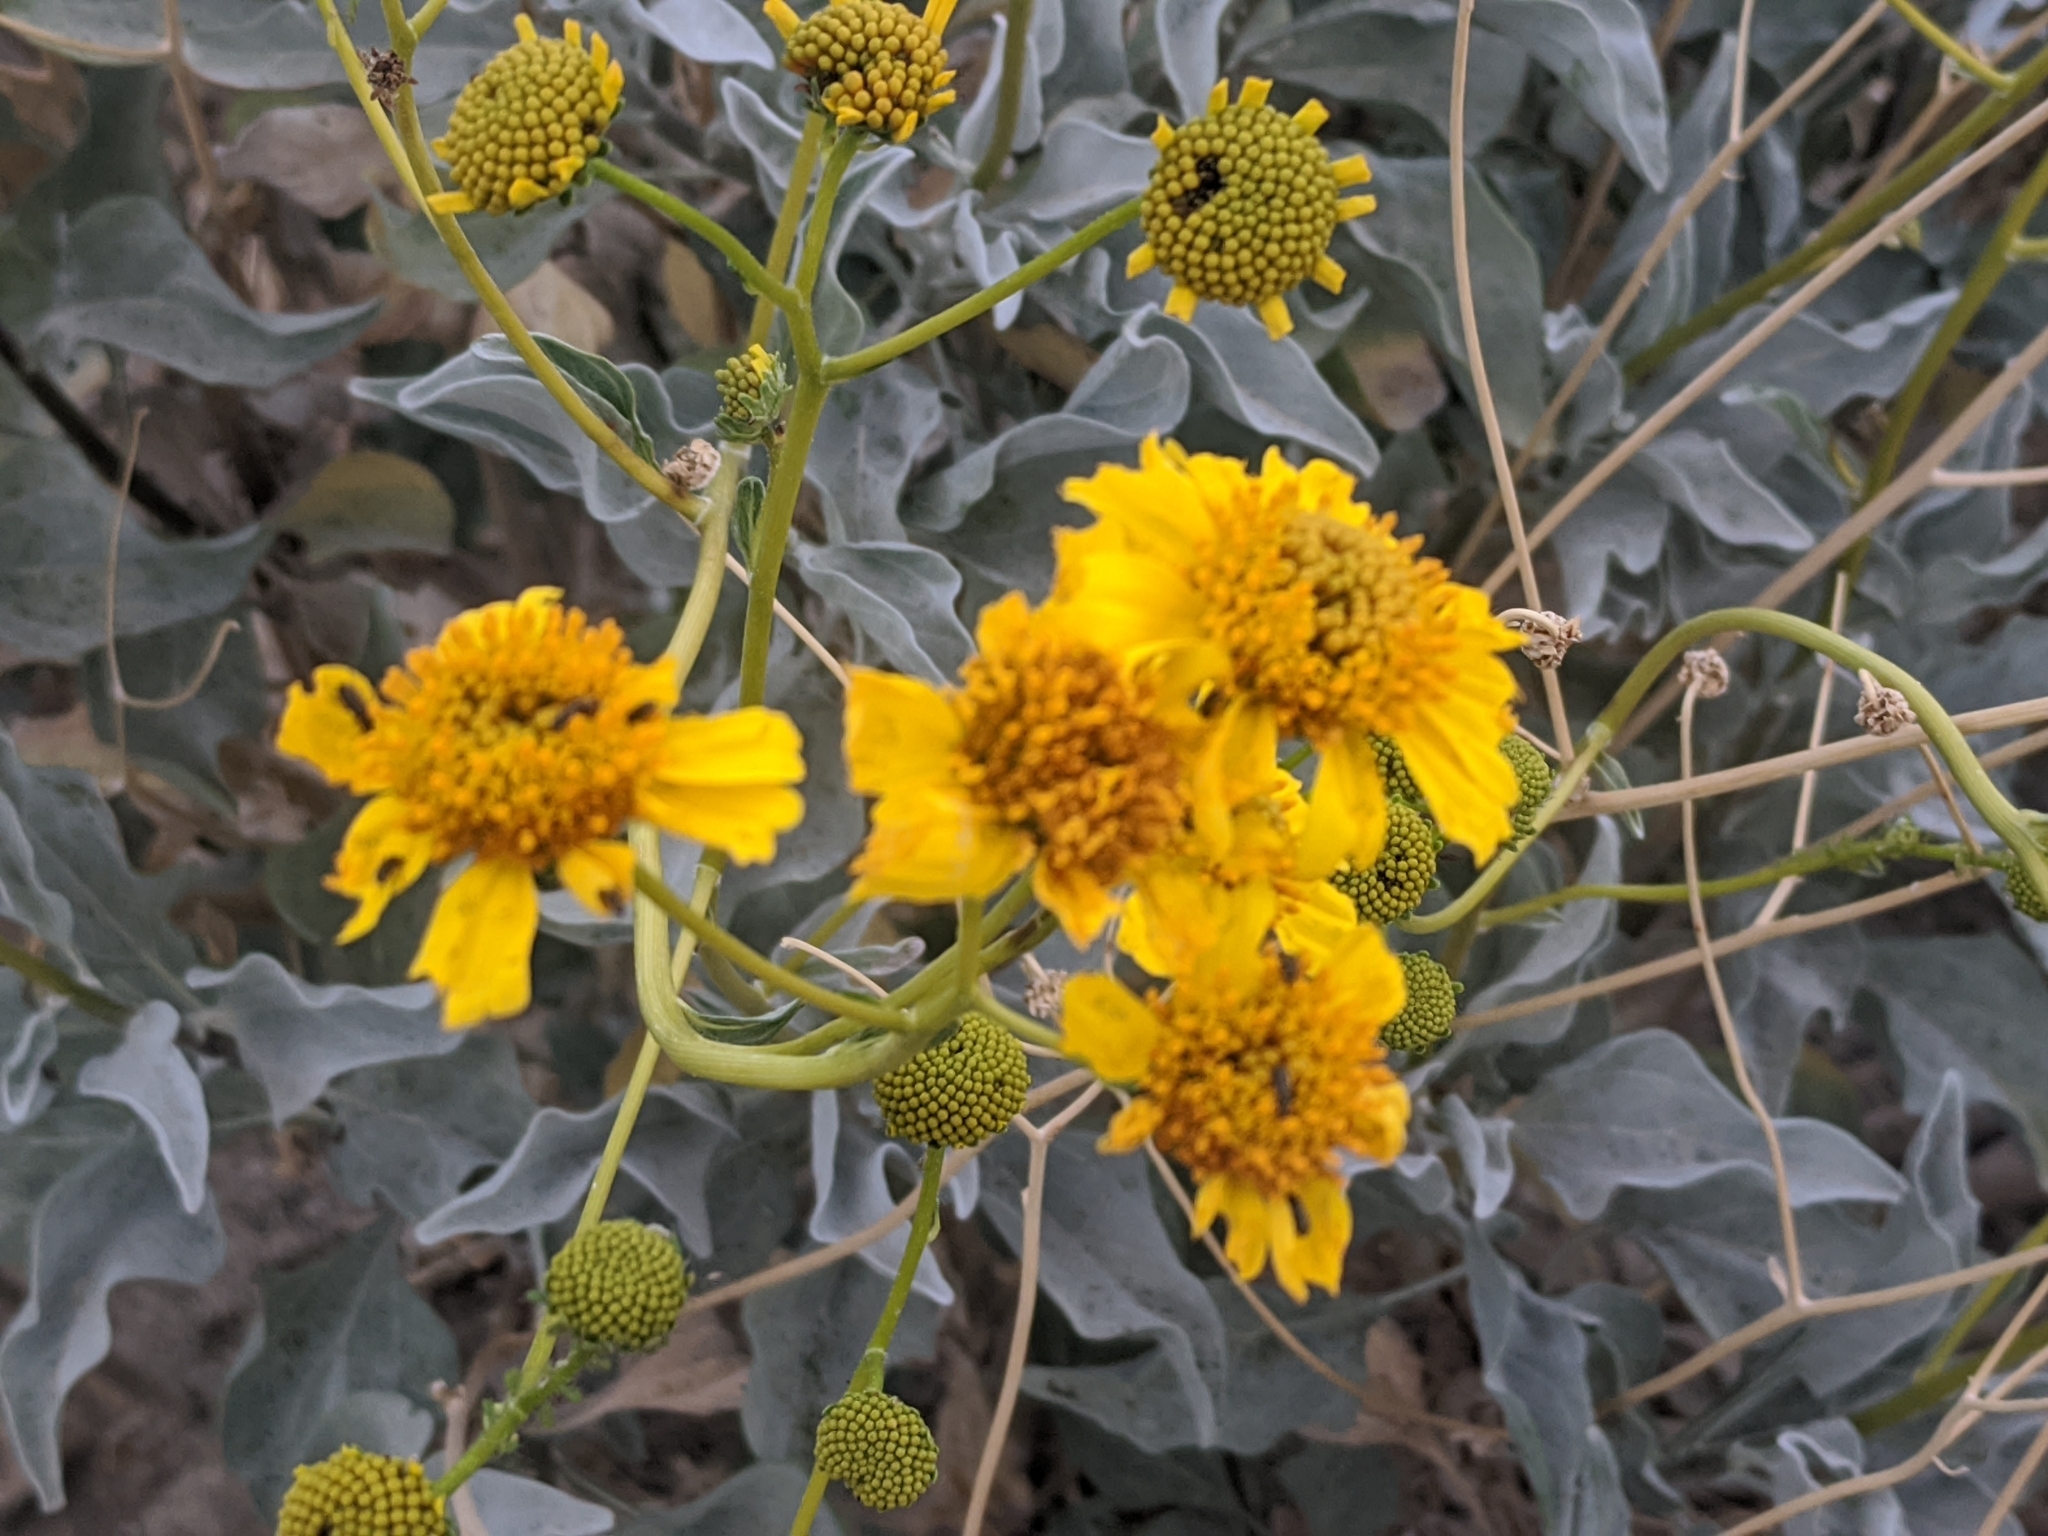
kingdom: Plantae
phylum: Tracheophyta
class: Magnoliopsida
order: Asterales
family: Asteraceae
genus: Encelia
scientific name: Encelia farinosa
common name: Brittlebush
